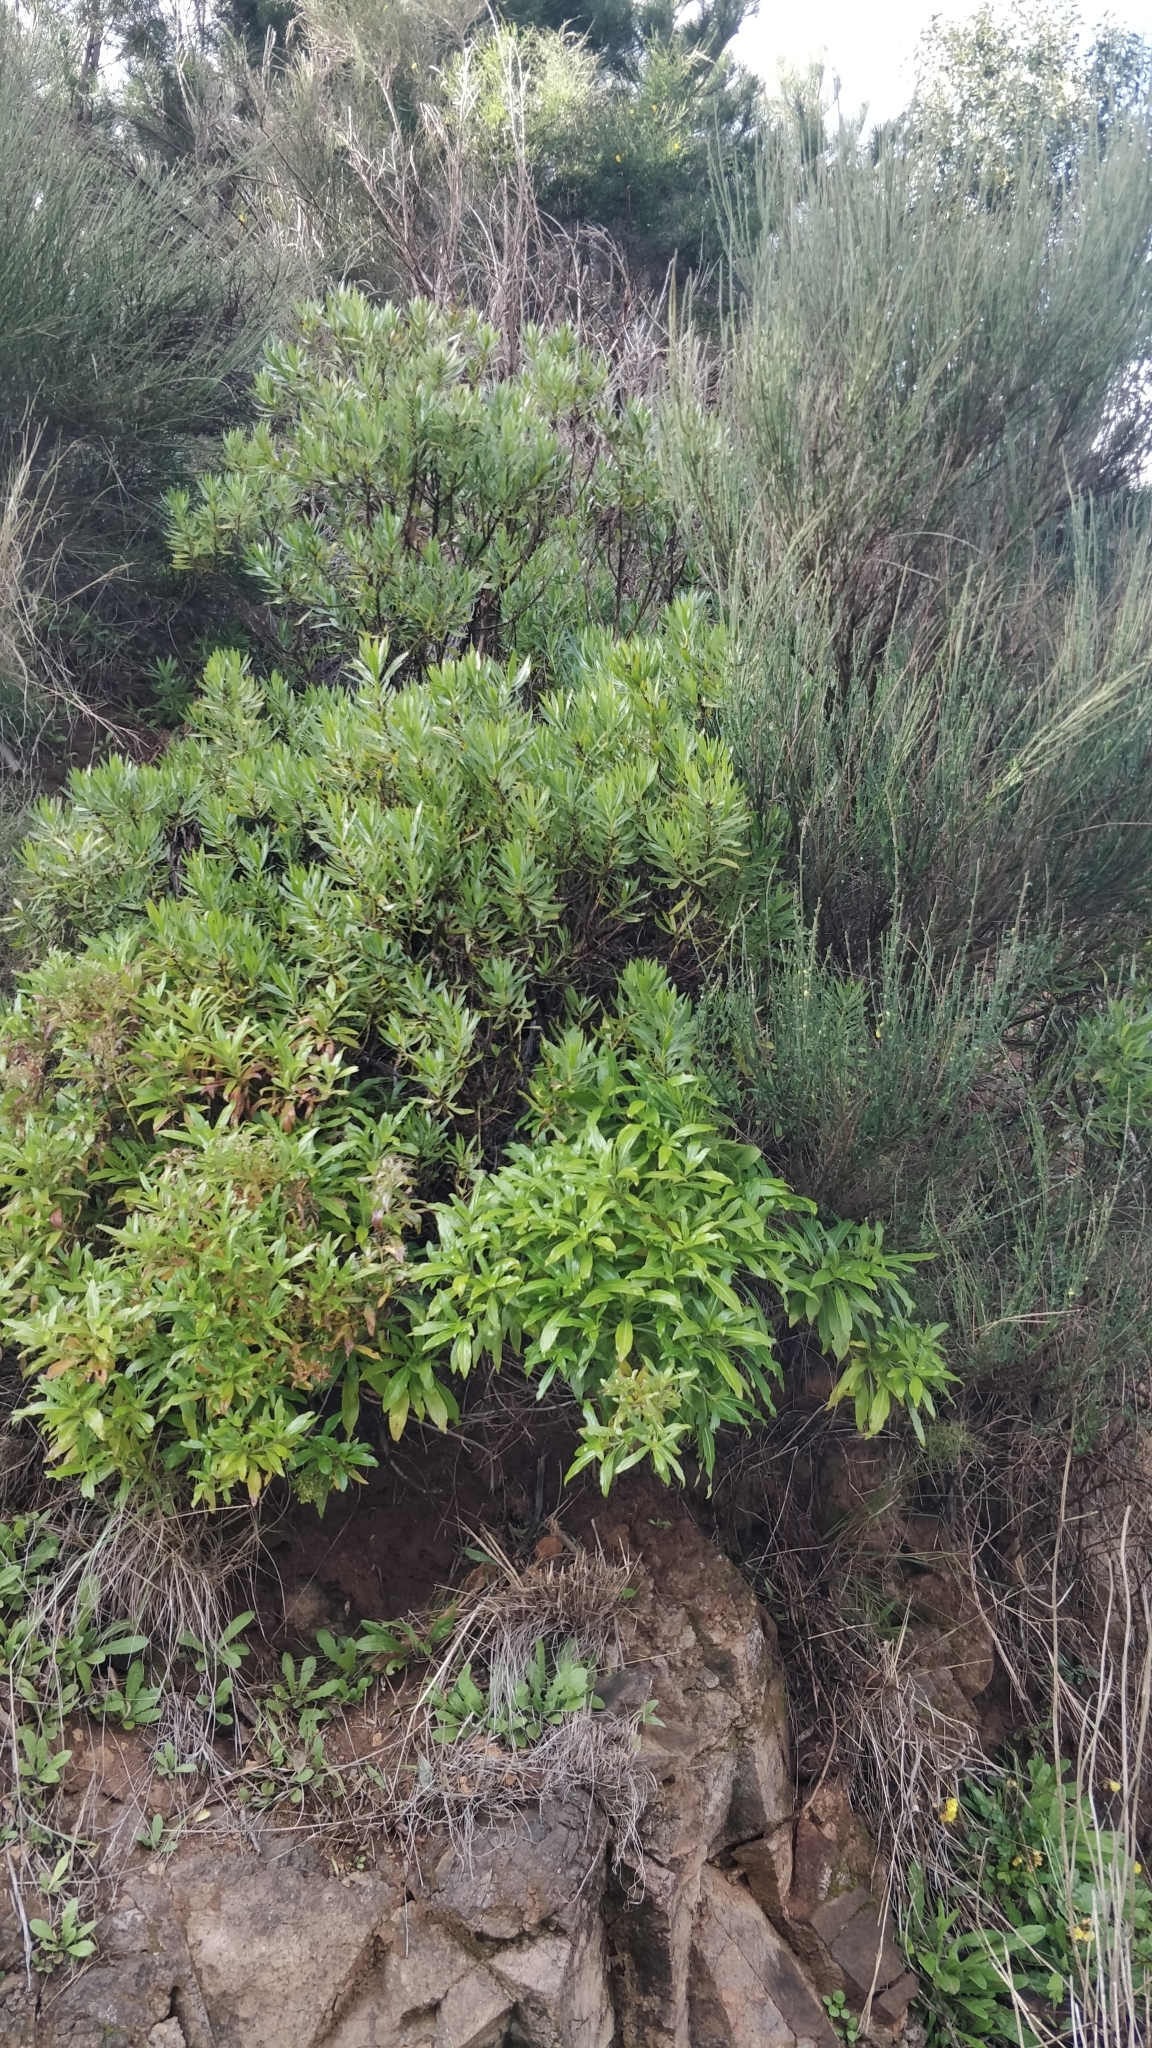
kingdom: Plantae
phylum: Tracheophyta
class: Magnoliopsida
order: Gentianales
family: Rubiaceae
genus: Phyllis
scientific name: Phyllis nobla
